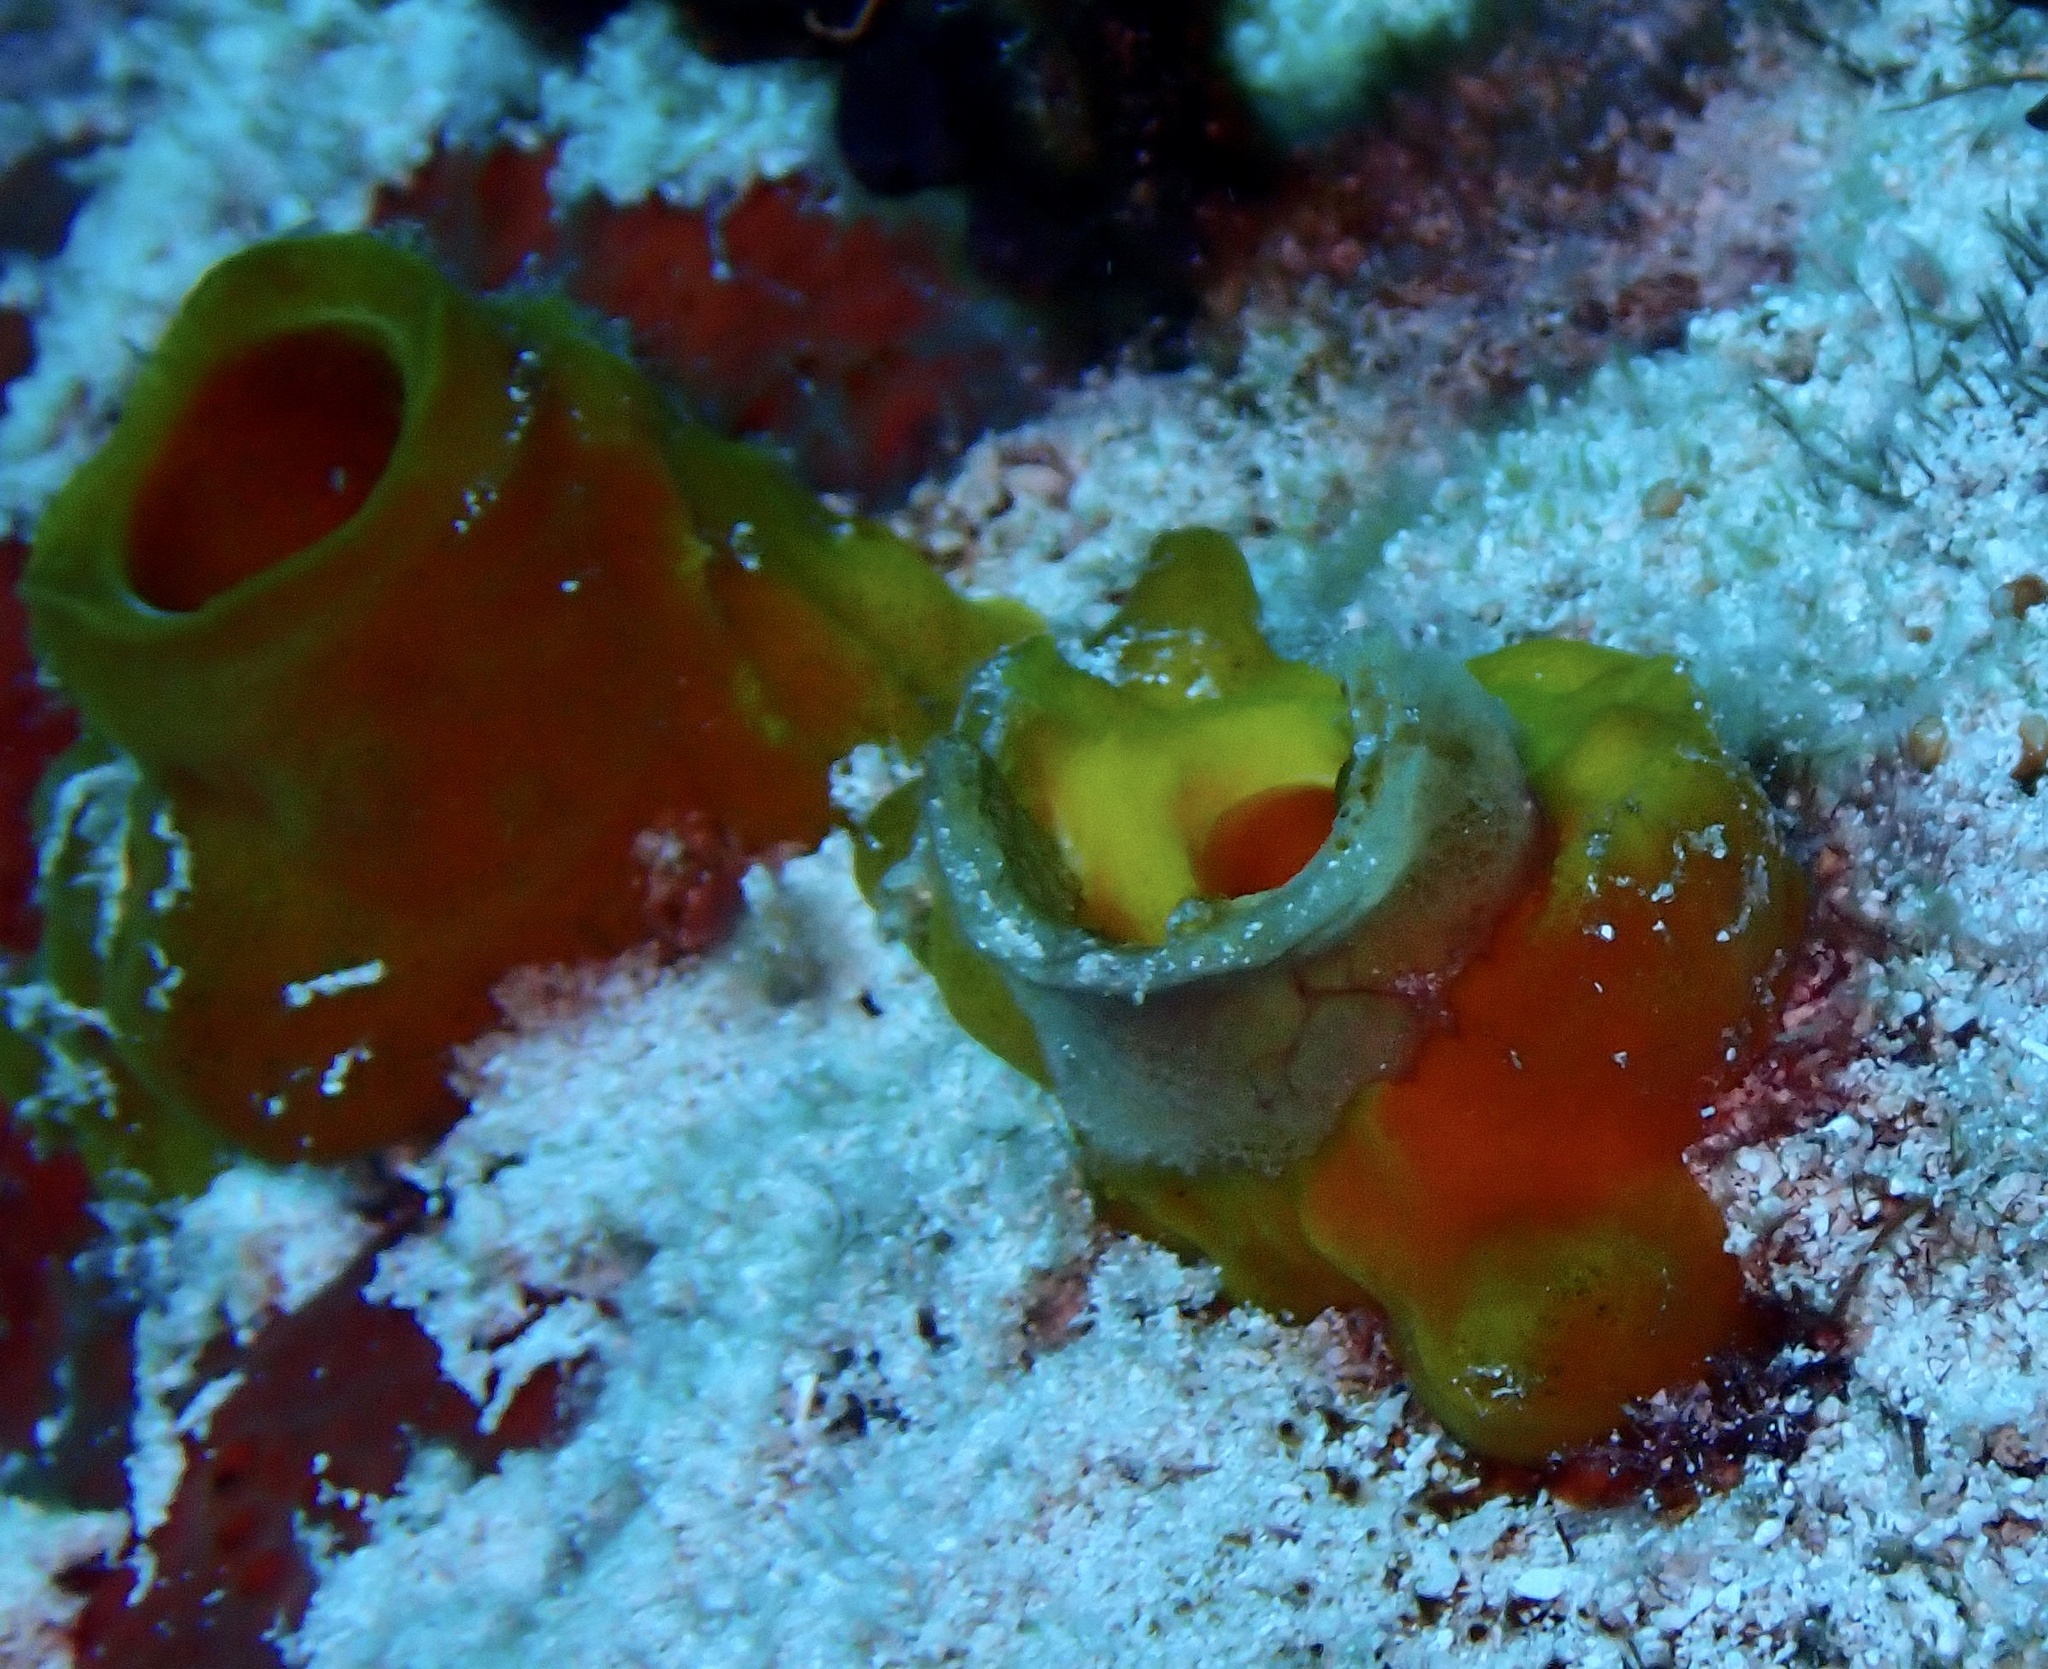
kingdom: Animalia
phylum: Porifera
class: Demospongiae
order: Haplosclerida
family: Phloeodictyidae
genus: Siphonodictyon
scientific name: Siphonodictyon coralliphagum
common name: Coral-eating boring sponge
